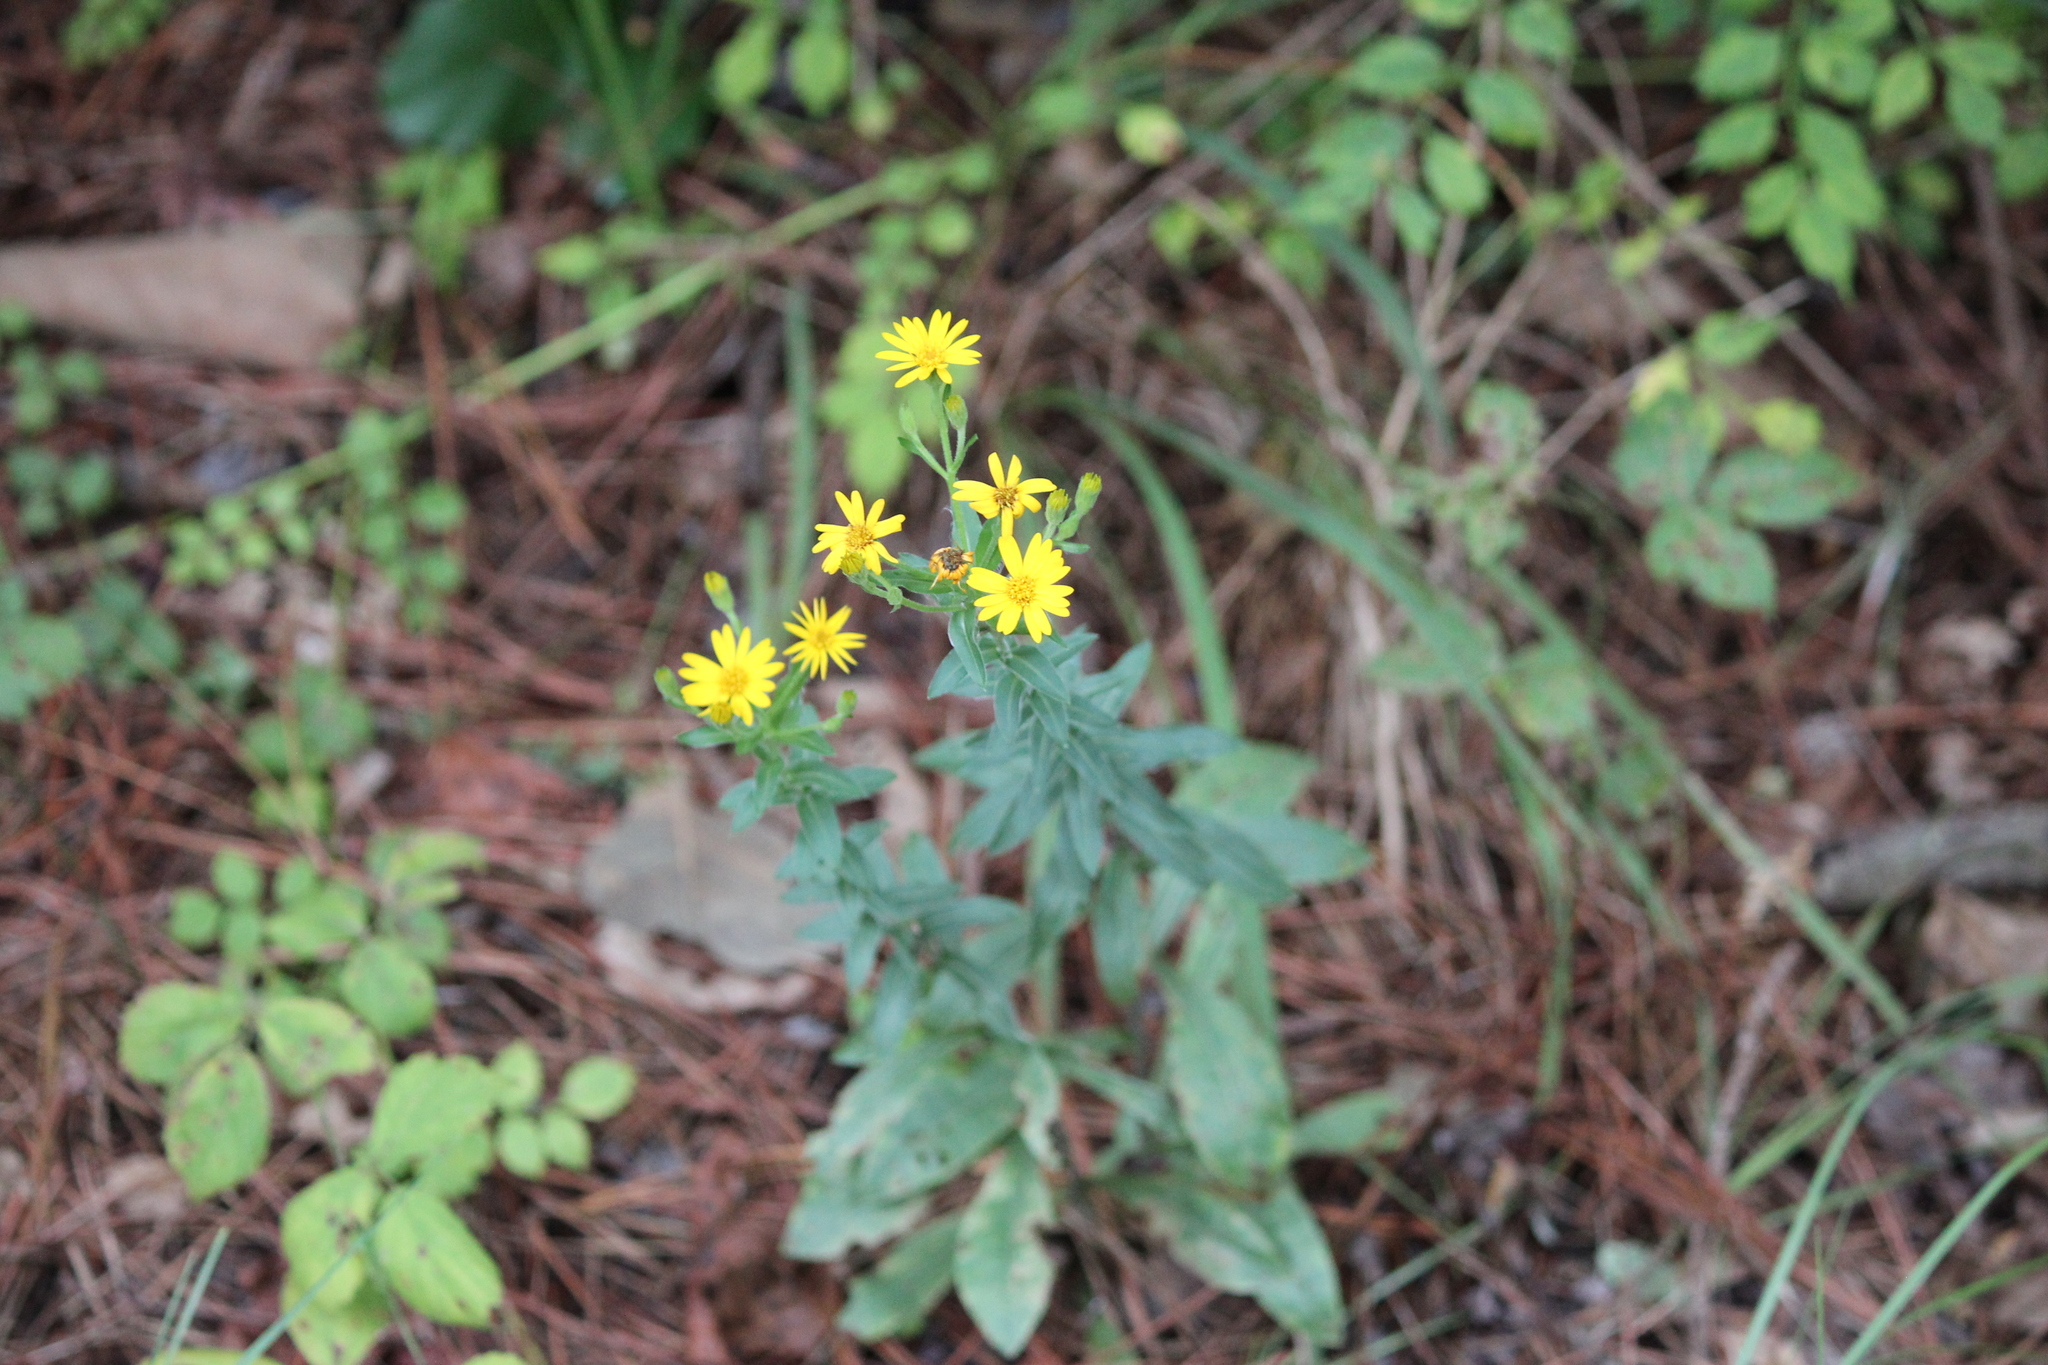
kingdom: Plantae
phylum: Tracheophyta
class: Magnoliopsida
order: Asterales
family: Asteraceae
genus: Chrysopsis
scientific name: Chrysopsis mariana
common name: Maryland golden-aster
